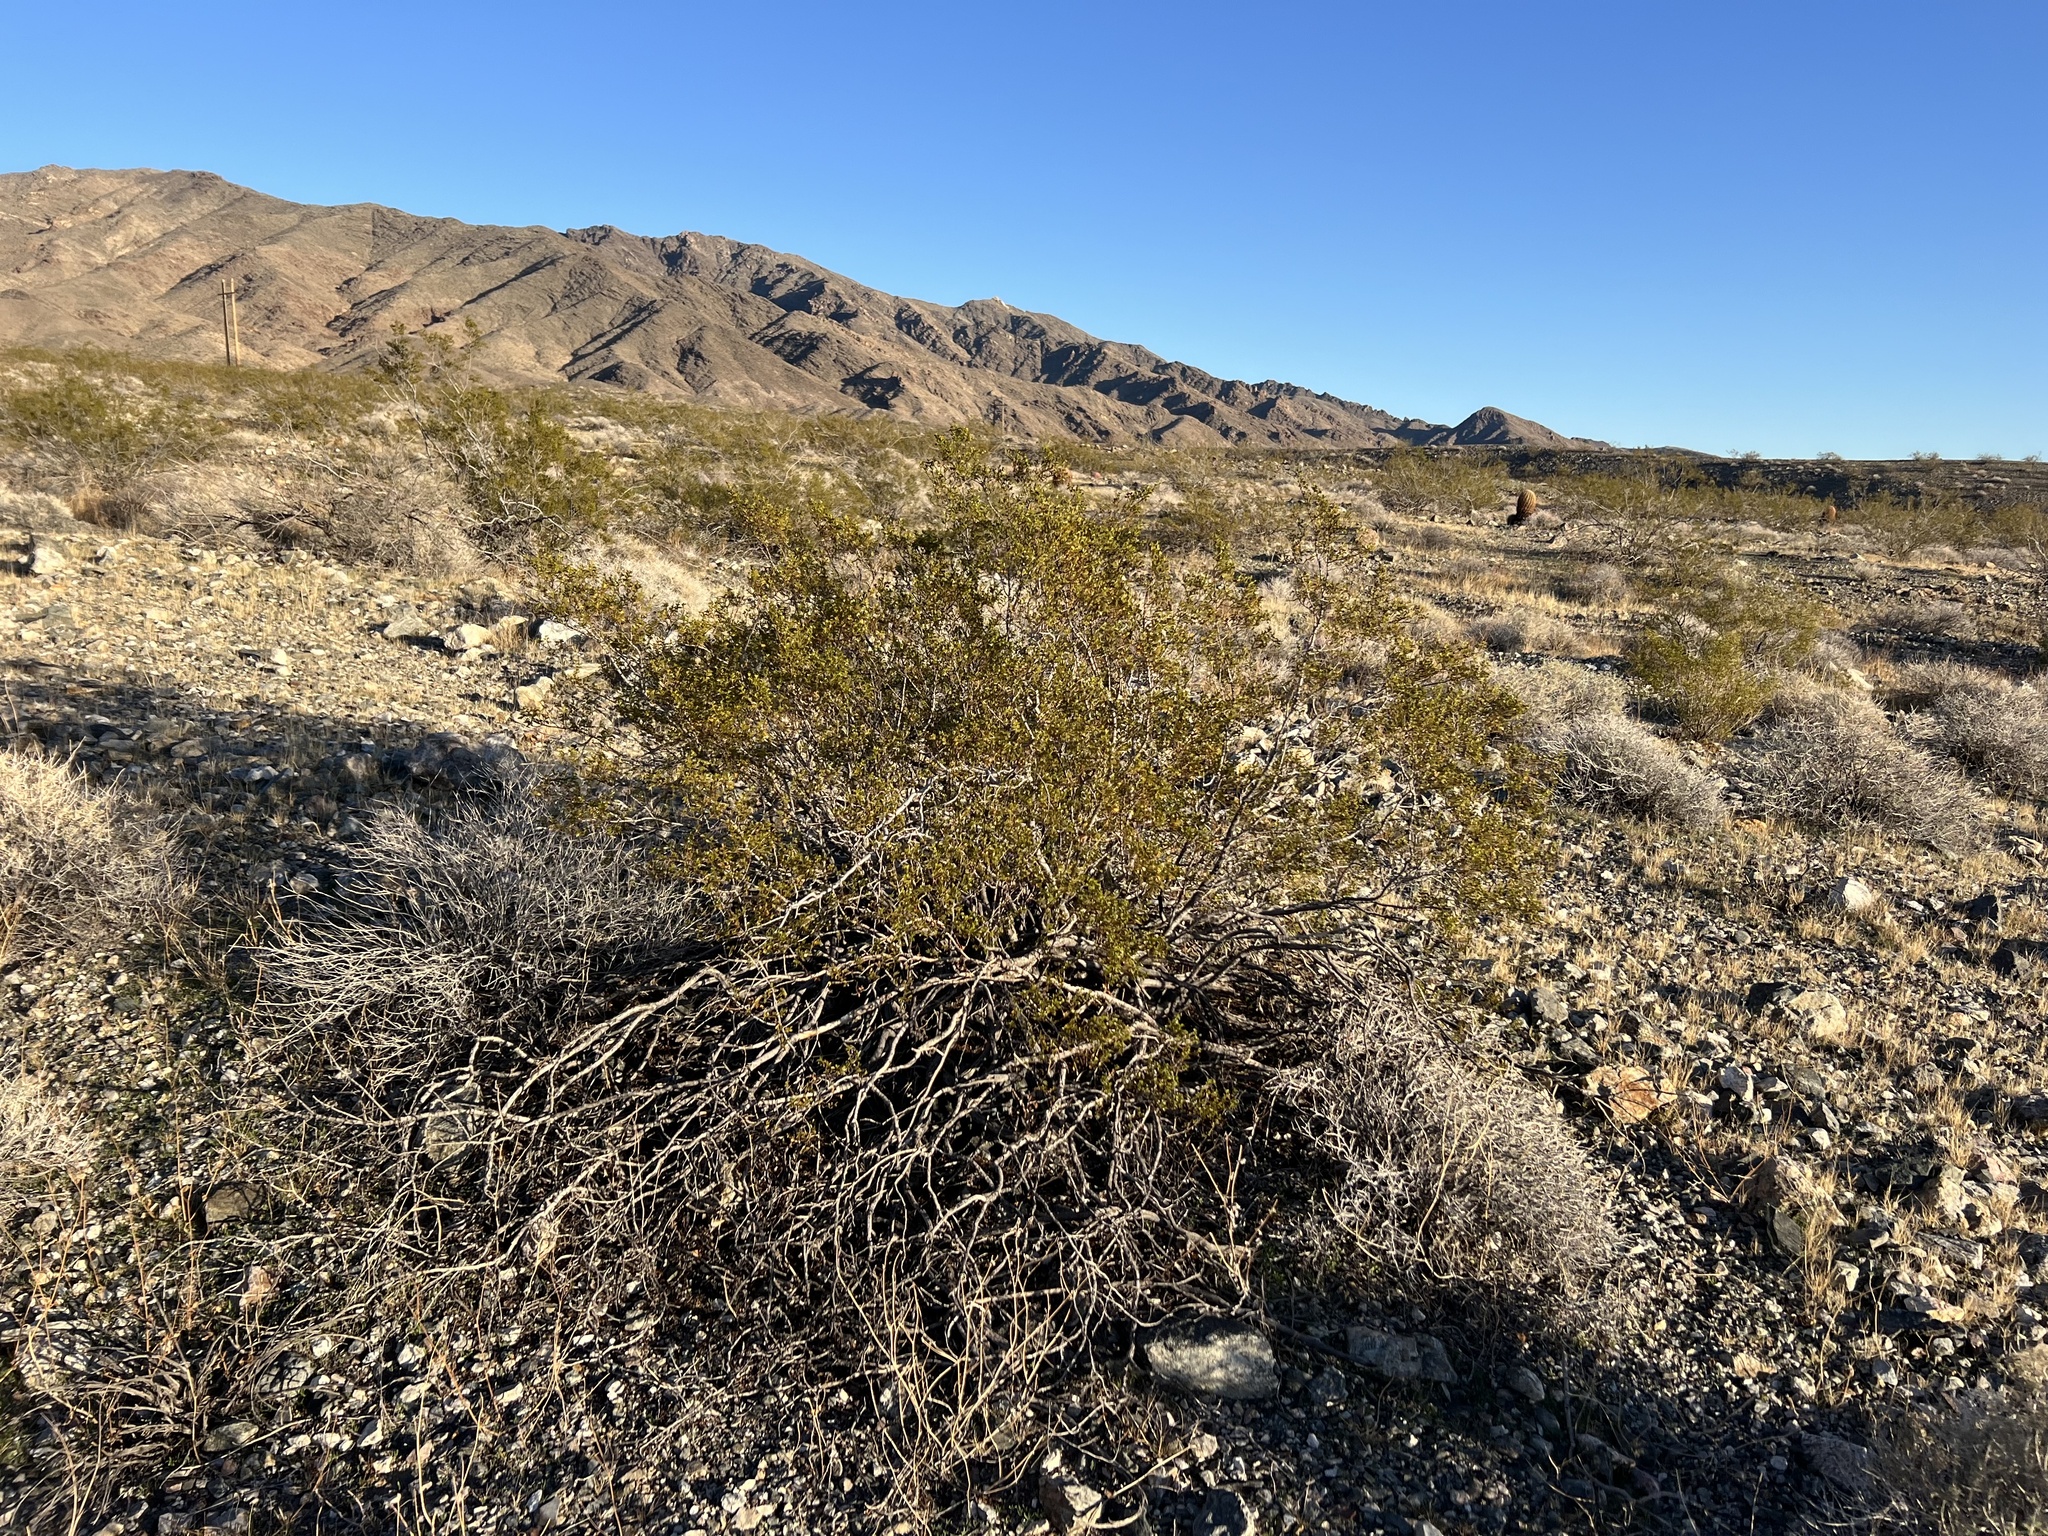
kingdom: Plantae
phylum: Tracheophyta
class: Magnoliopsida
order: Zygophyllales
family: Zygophyllaceae
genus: Larrea
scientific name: Larrea tridentata
